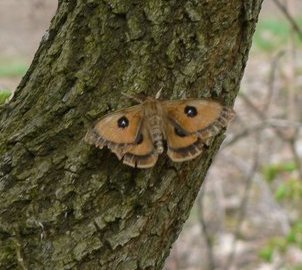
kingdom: Animalia
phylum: Arthropoda
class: Insecta
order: Lepidoptera
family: Saturniidae
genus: Aglia
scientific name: Aglia tau
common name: Tau emperor
